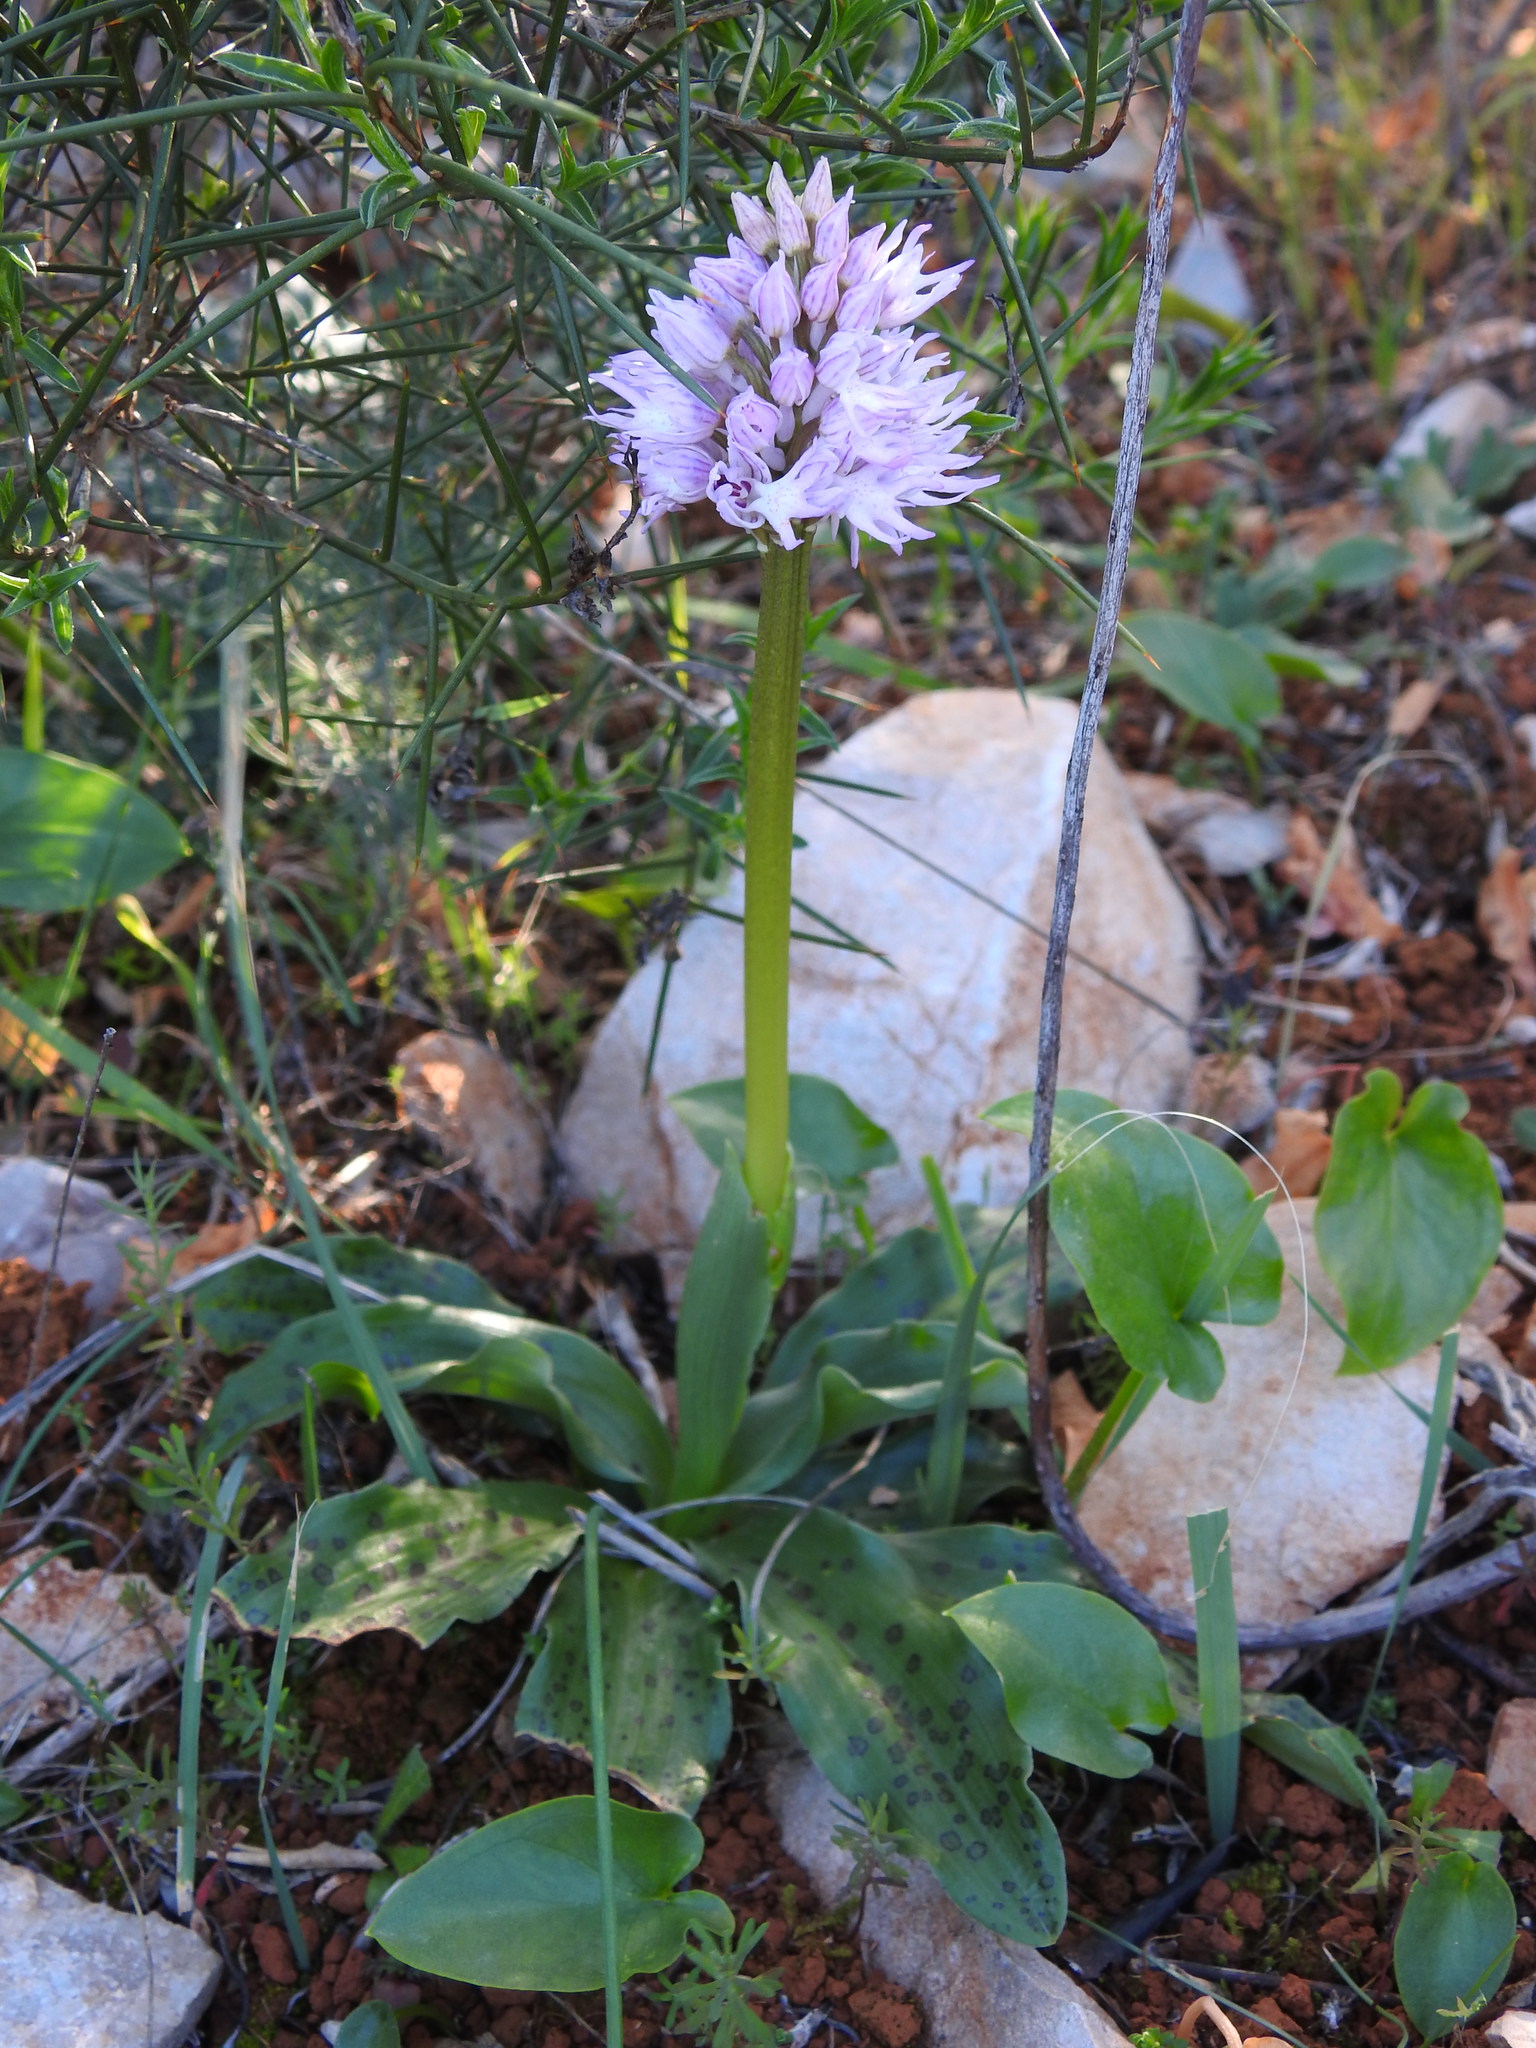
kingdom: Plantae
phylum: Tracheophyta
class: Liliopsida
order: Asparagales
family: Orchidaceae
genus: Orchis
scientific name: Orchis italica
